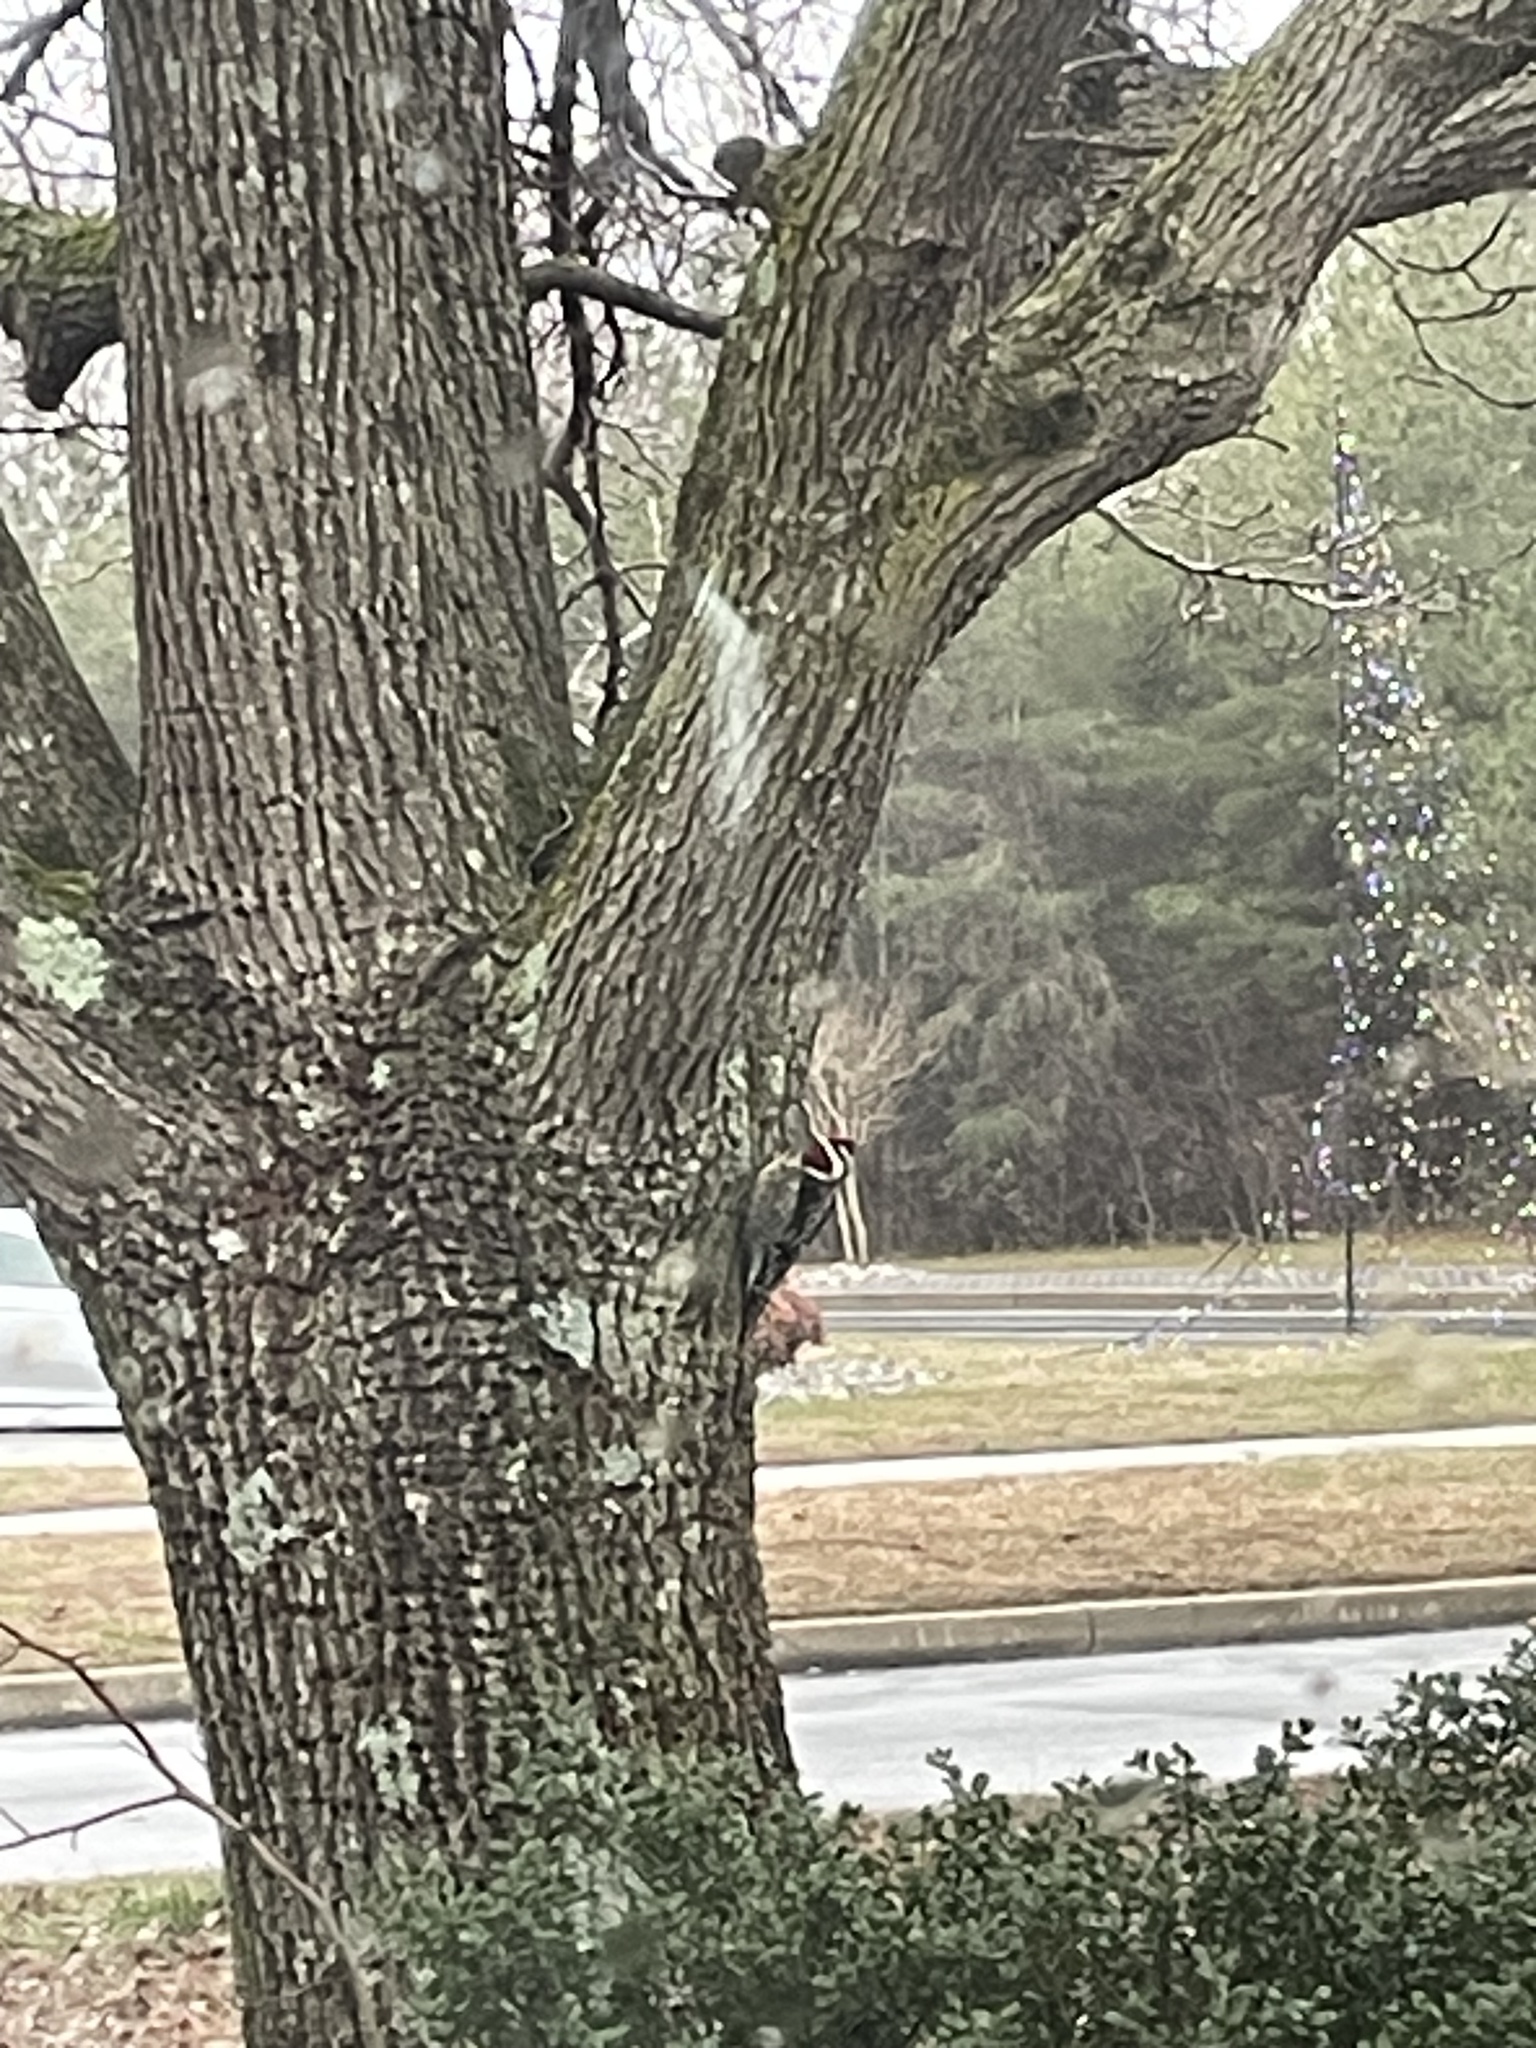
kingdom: Animalia
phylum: Chordata
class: Aves
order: Piciformes
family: Picidae
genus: Sphyrapicus
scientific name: Sphyrapicus varius
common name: Yellow-bellied sapsucker
